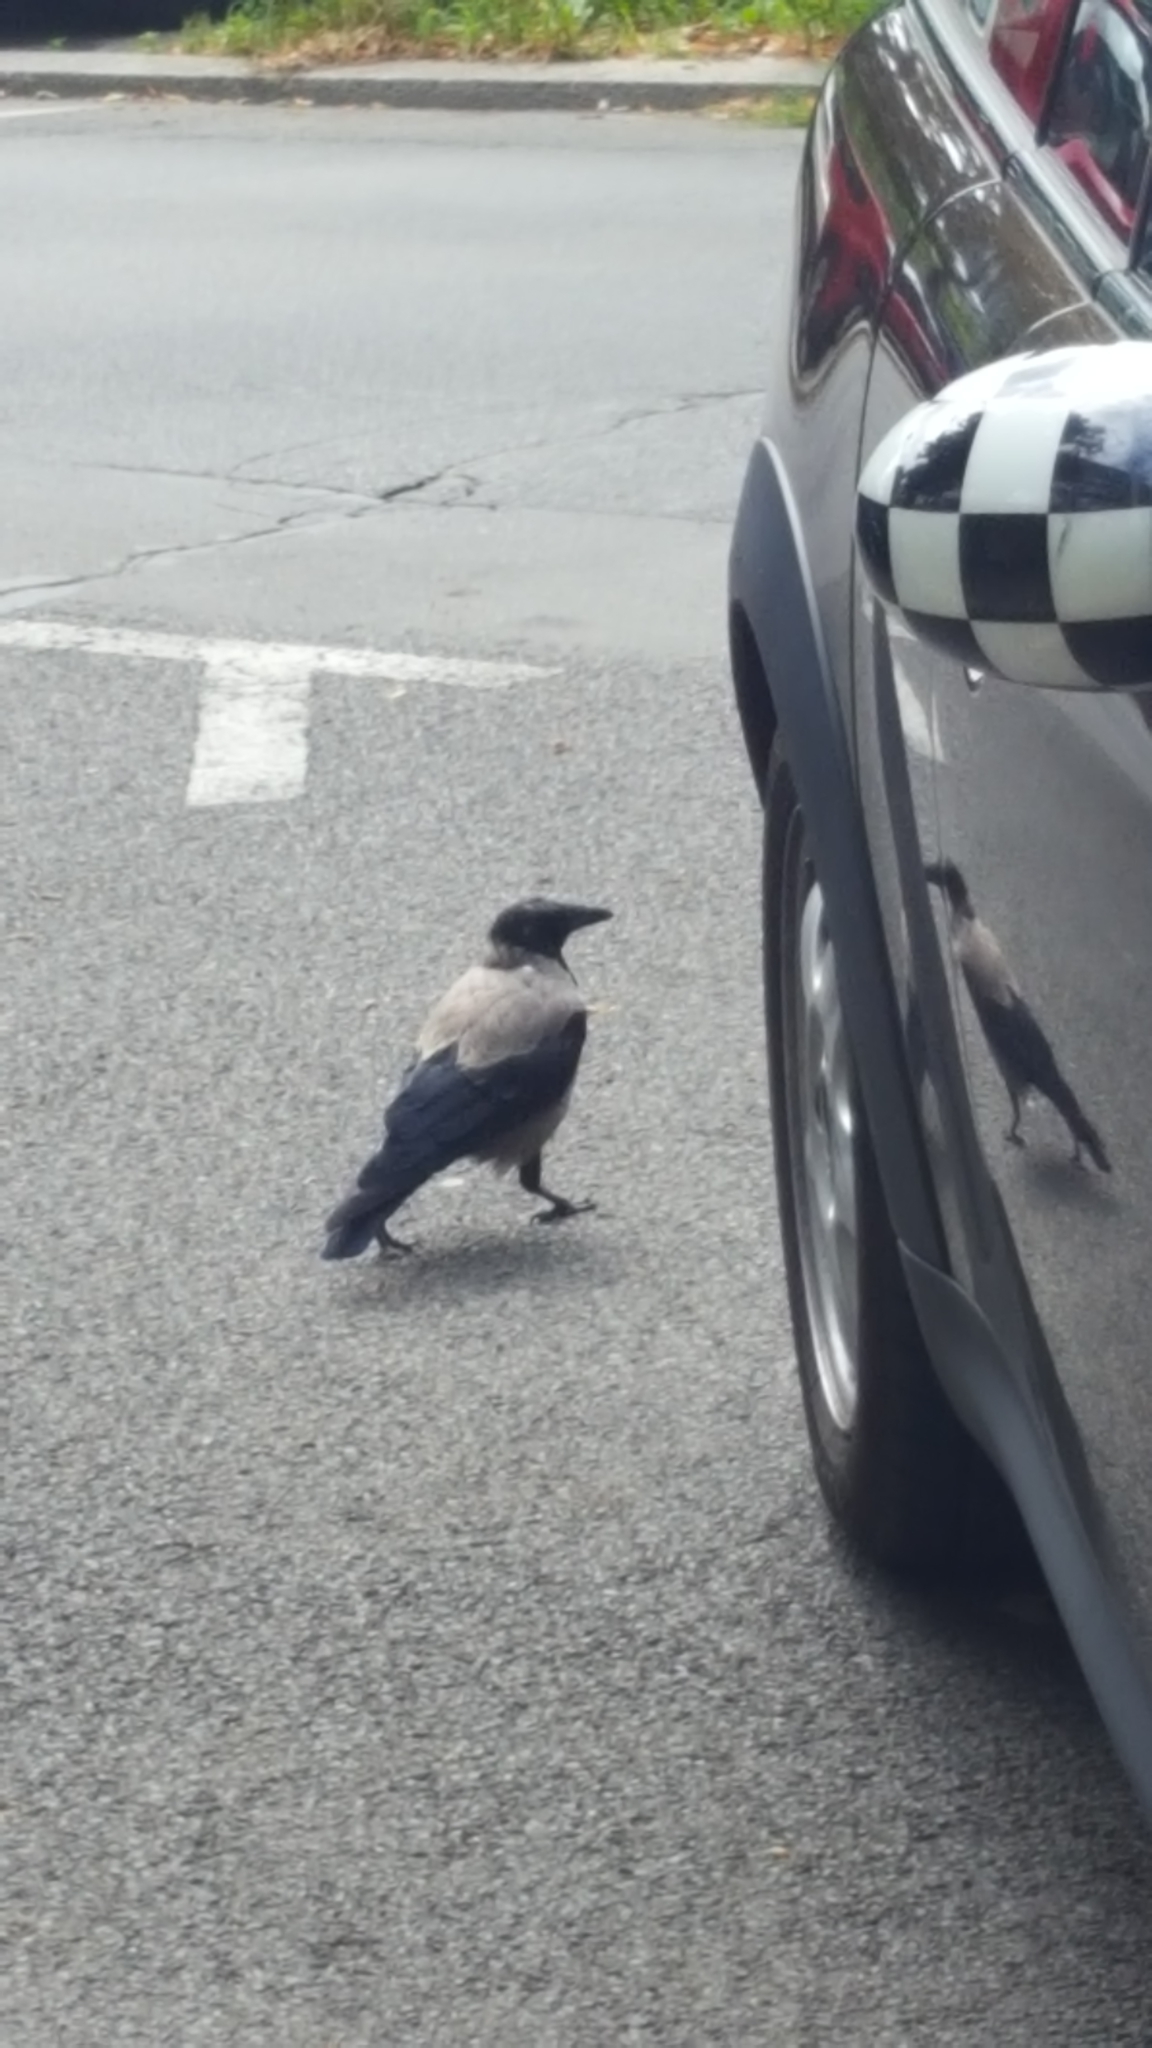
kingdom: Animalia
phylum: Chordata
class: Aves
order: Passeriformes
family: Corvidae
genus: Corvus
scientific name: Corvus cornix
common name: Hooded crow
